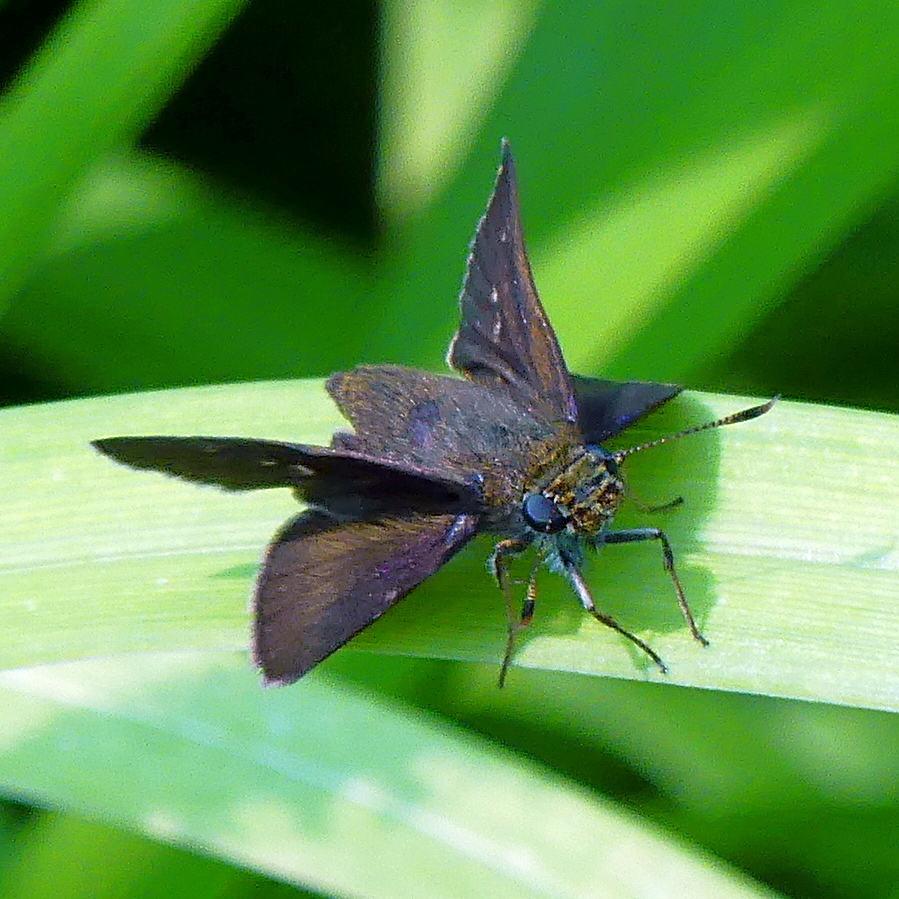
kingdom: Animalia
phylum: Arthropoda
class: Insecta
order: Lepidoptera
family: Hesperiidae
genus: Euphyes
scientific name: Euphyes vestris
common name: Dun skipper
